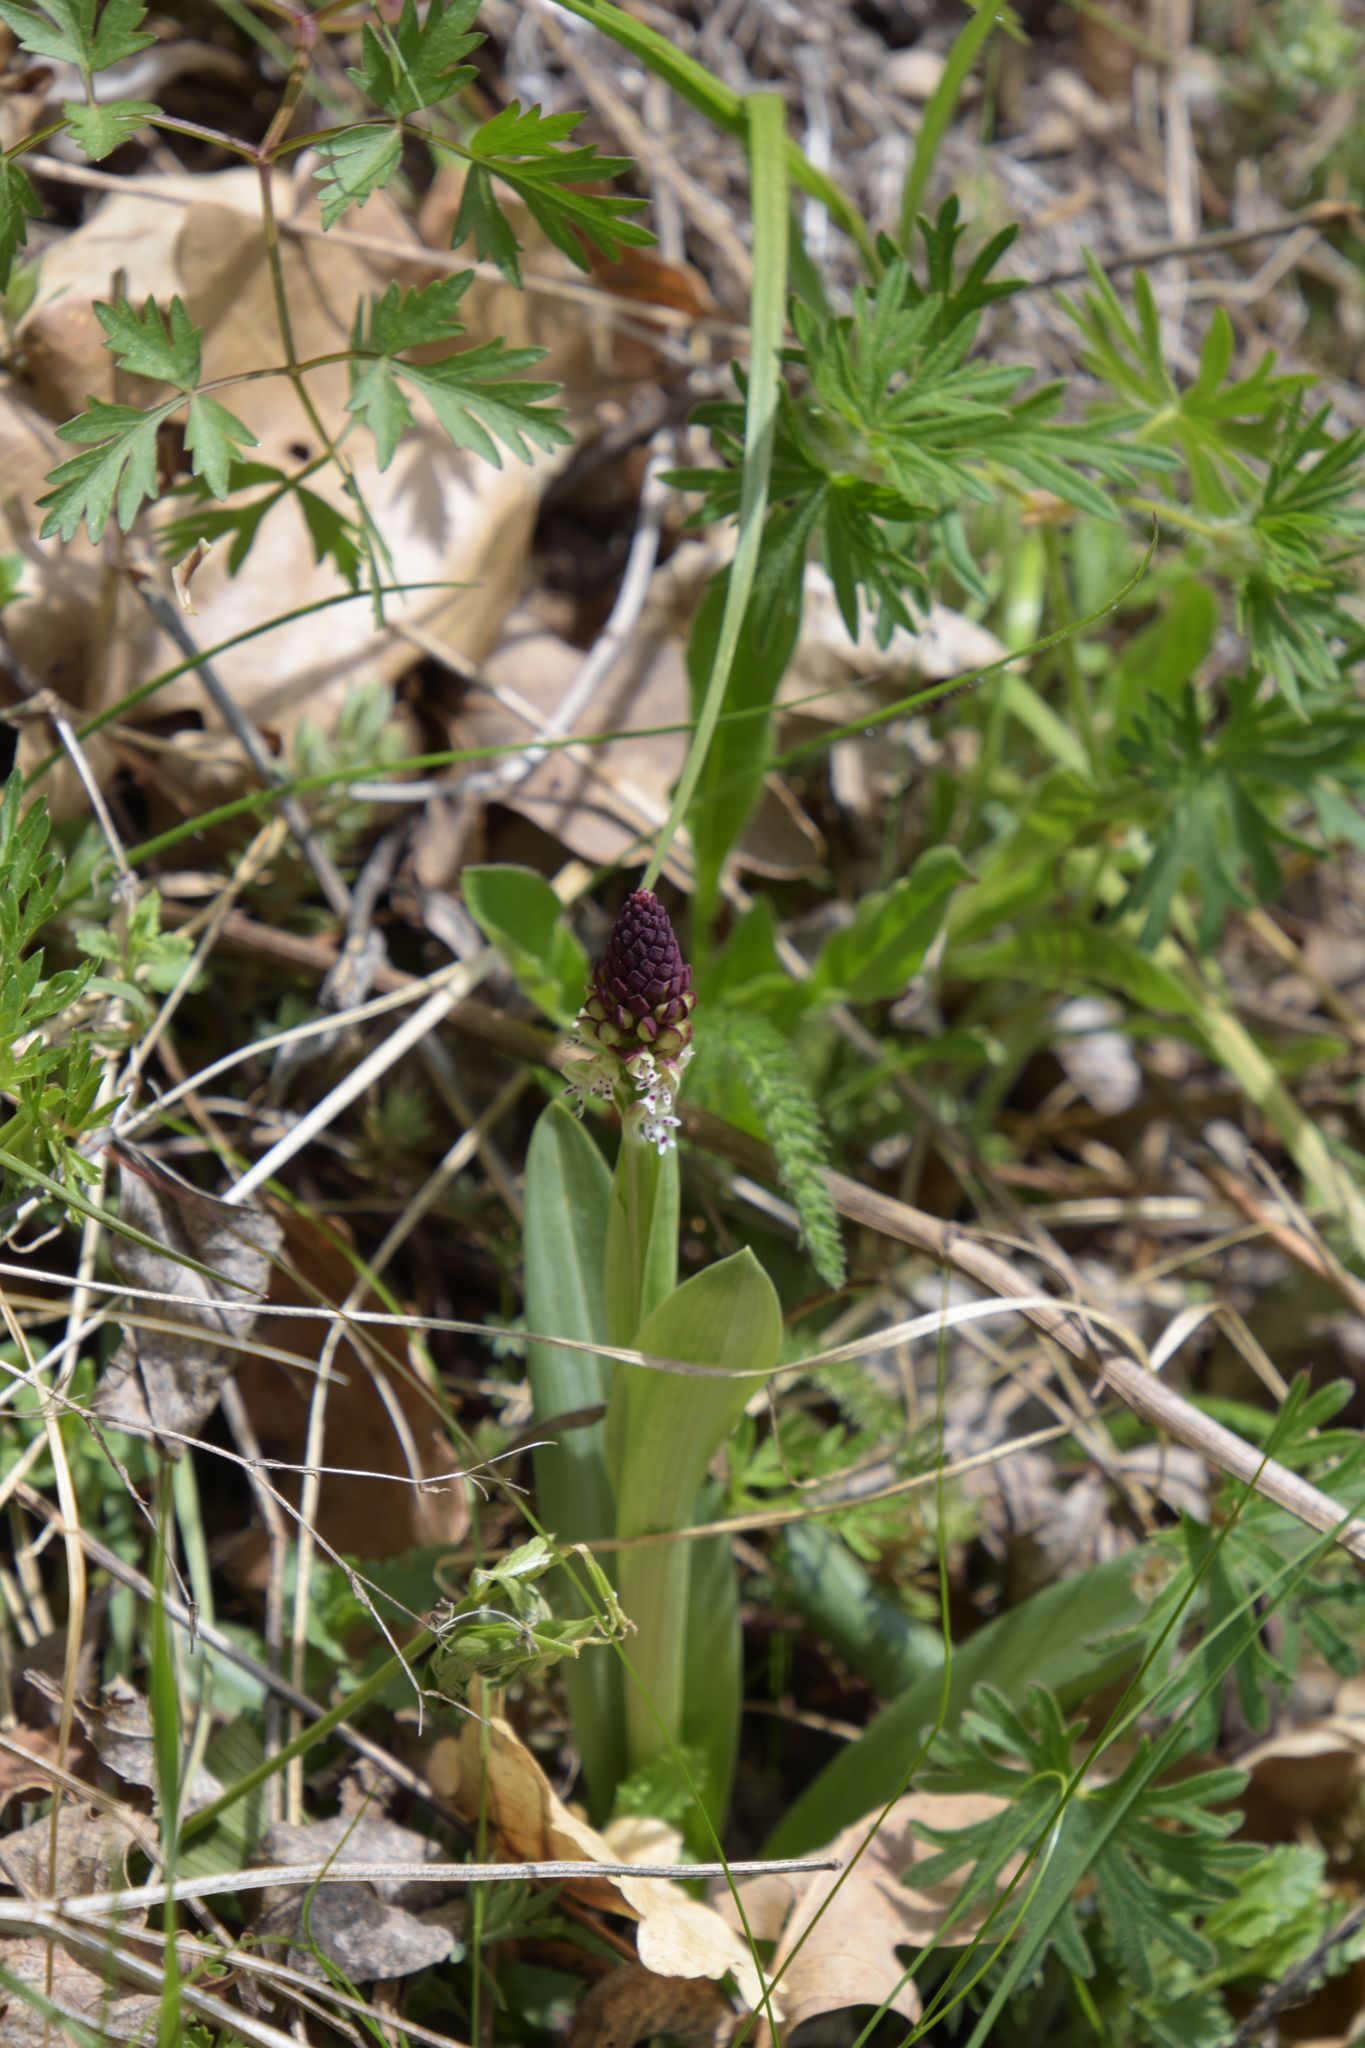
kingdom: Plantae
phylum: Tracheophyta
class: Liliopsida
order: Asparagales
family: Orchidaceae
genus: Neotinea
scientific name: Neotinea ustulata
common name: Burnt orchid
